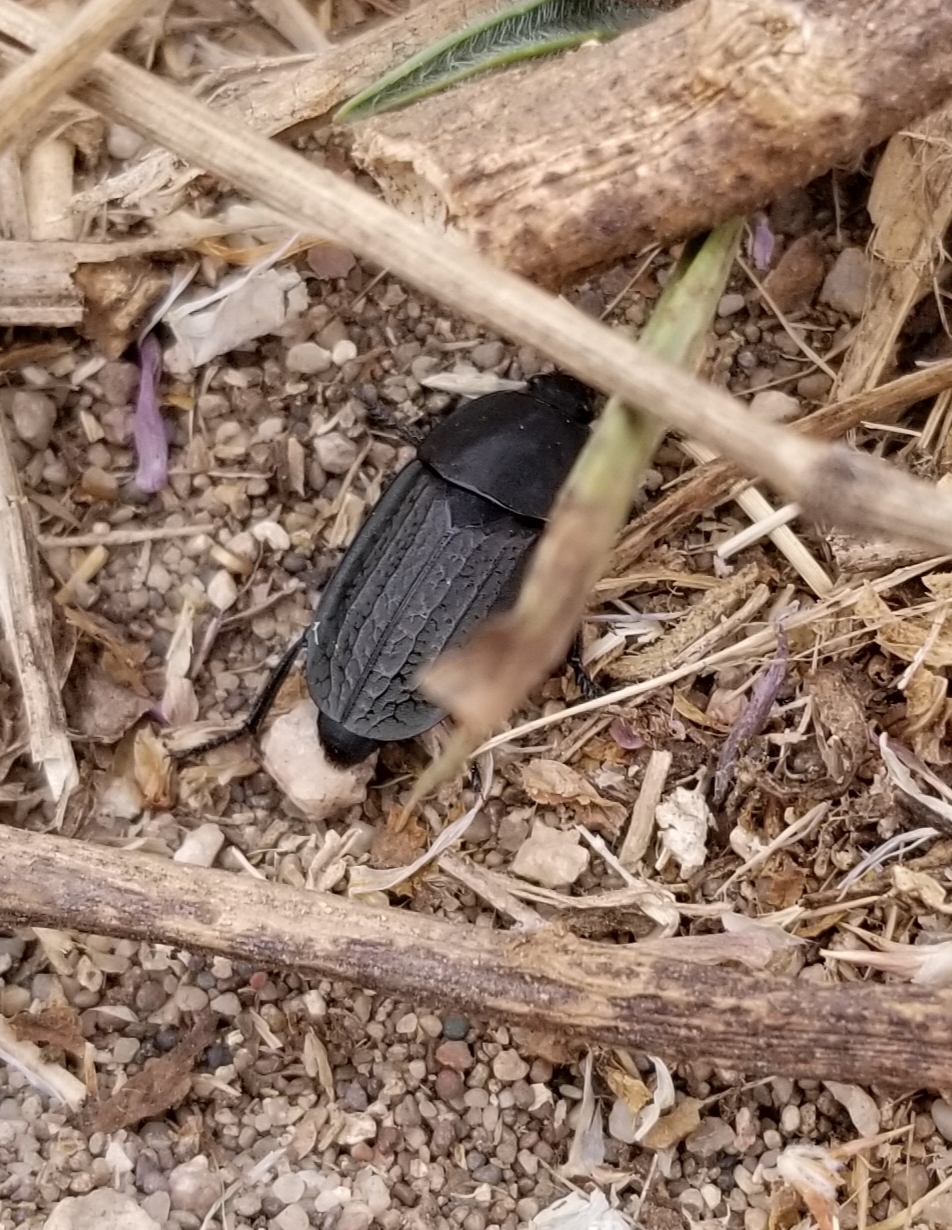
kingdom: Animalia
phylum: Arthropoda
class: Insecta
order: Coleoptera
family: Staphylinidae
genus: Heterosilpha
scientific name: Heterosilpha ramosa
